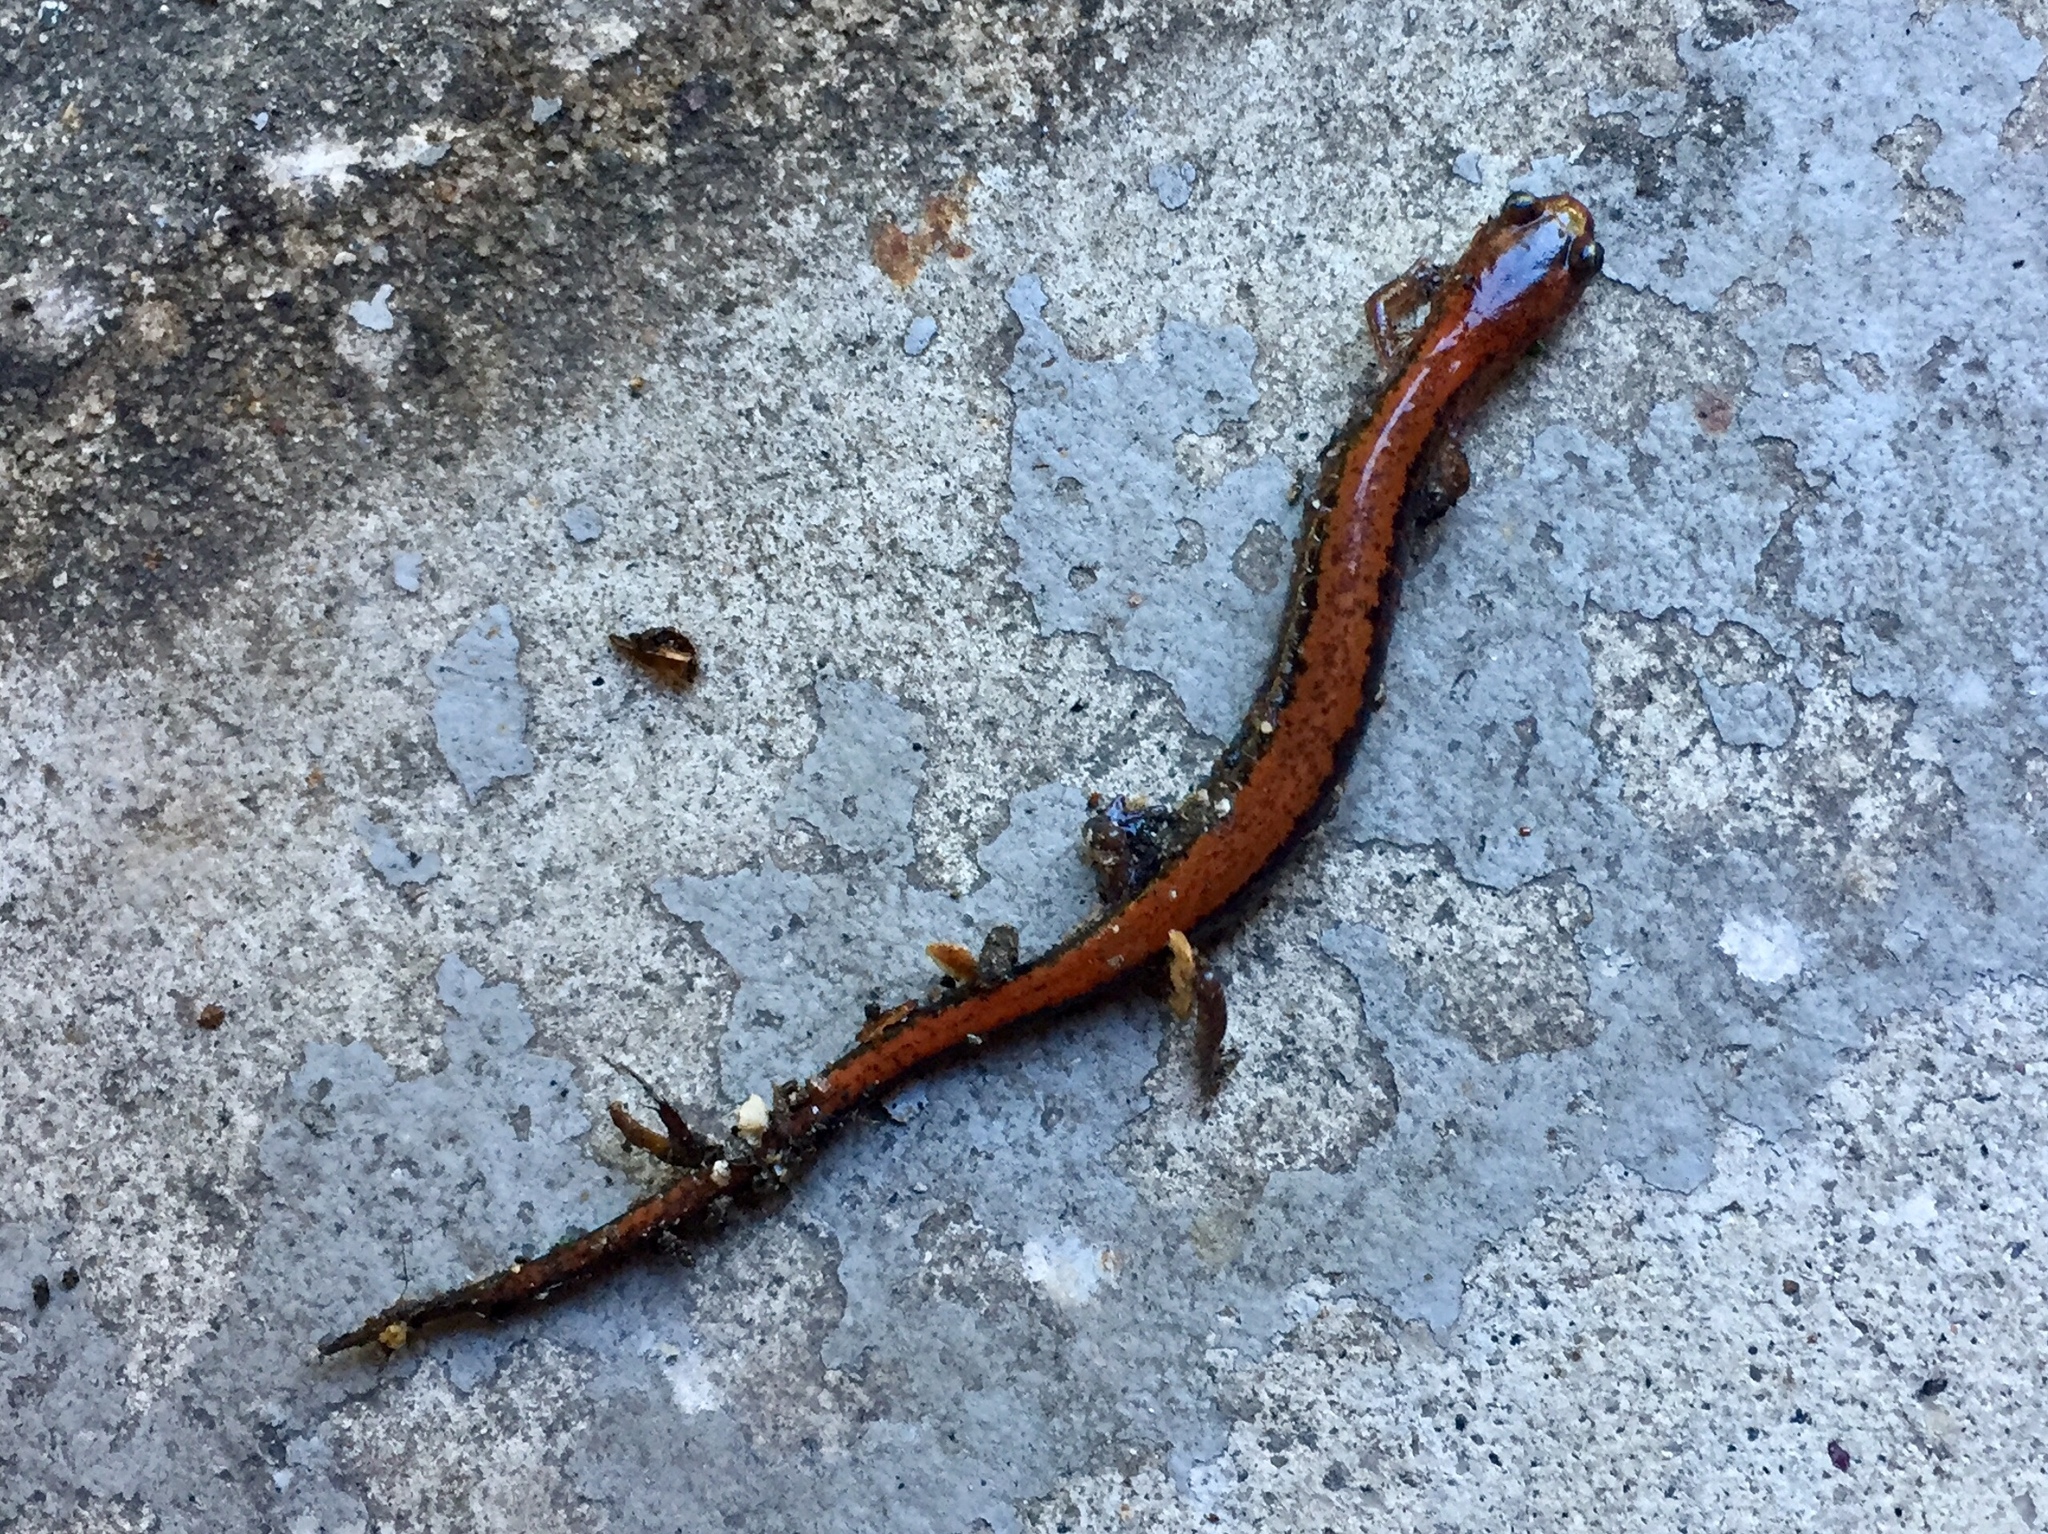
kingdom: Animalia
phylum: Chordata
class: Amphibia
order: Caudata
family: Plethodontidae
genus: Plethodon
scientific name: Plethodon cinereus
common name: Redback salamander
